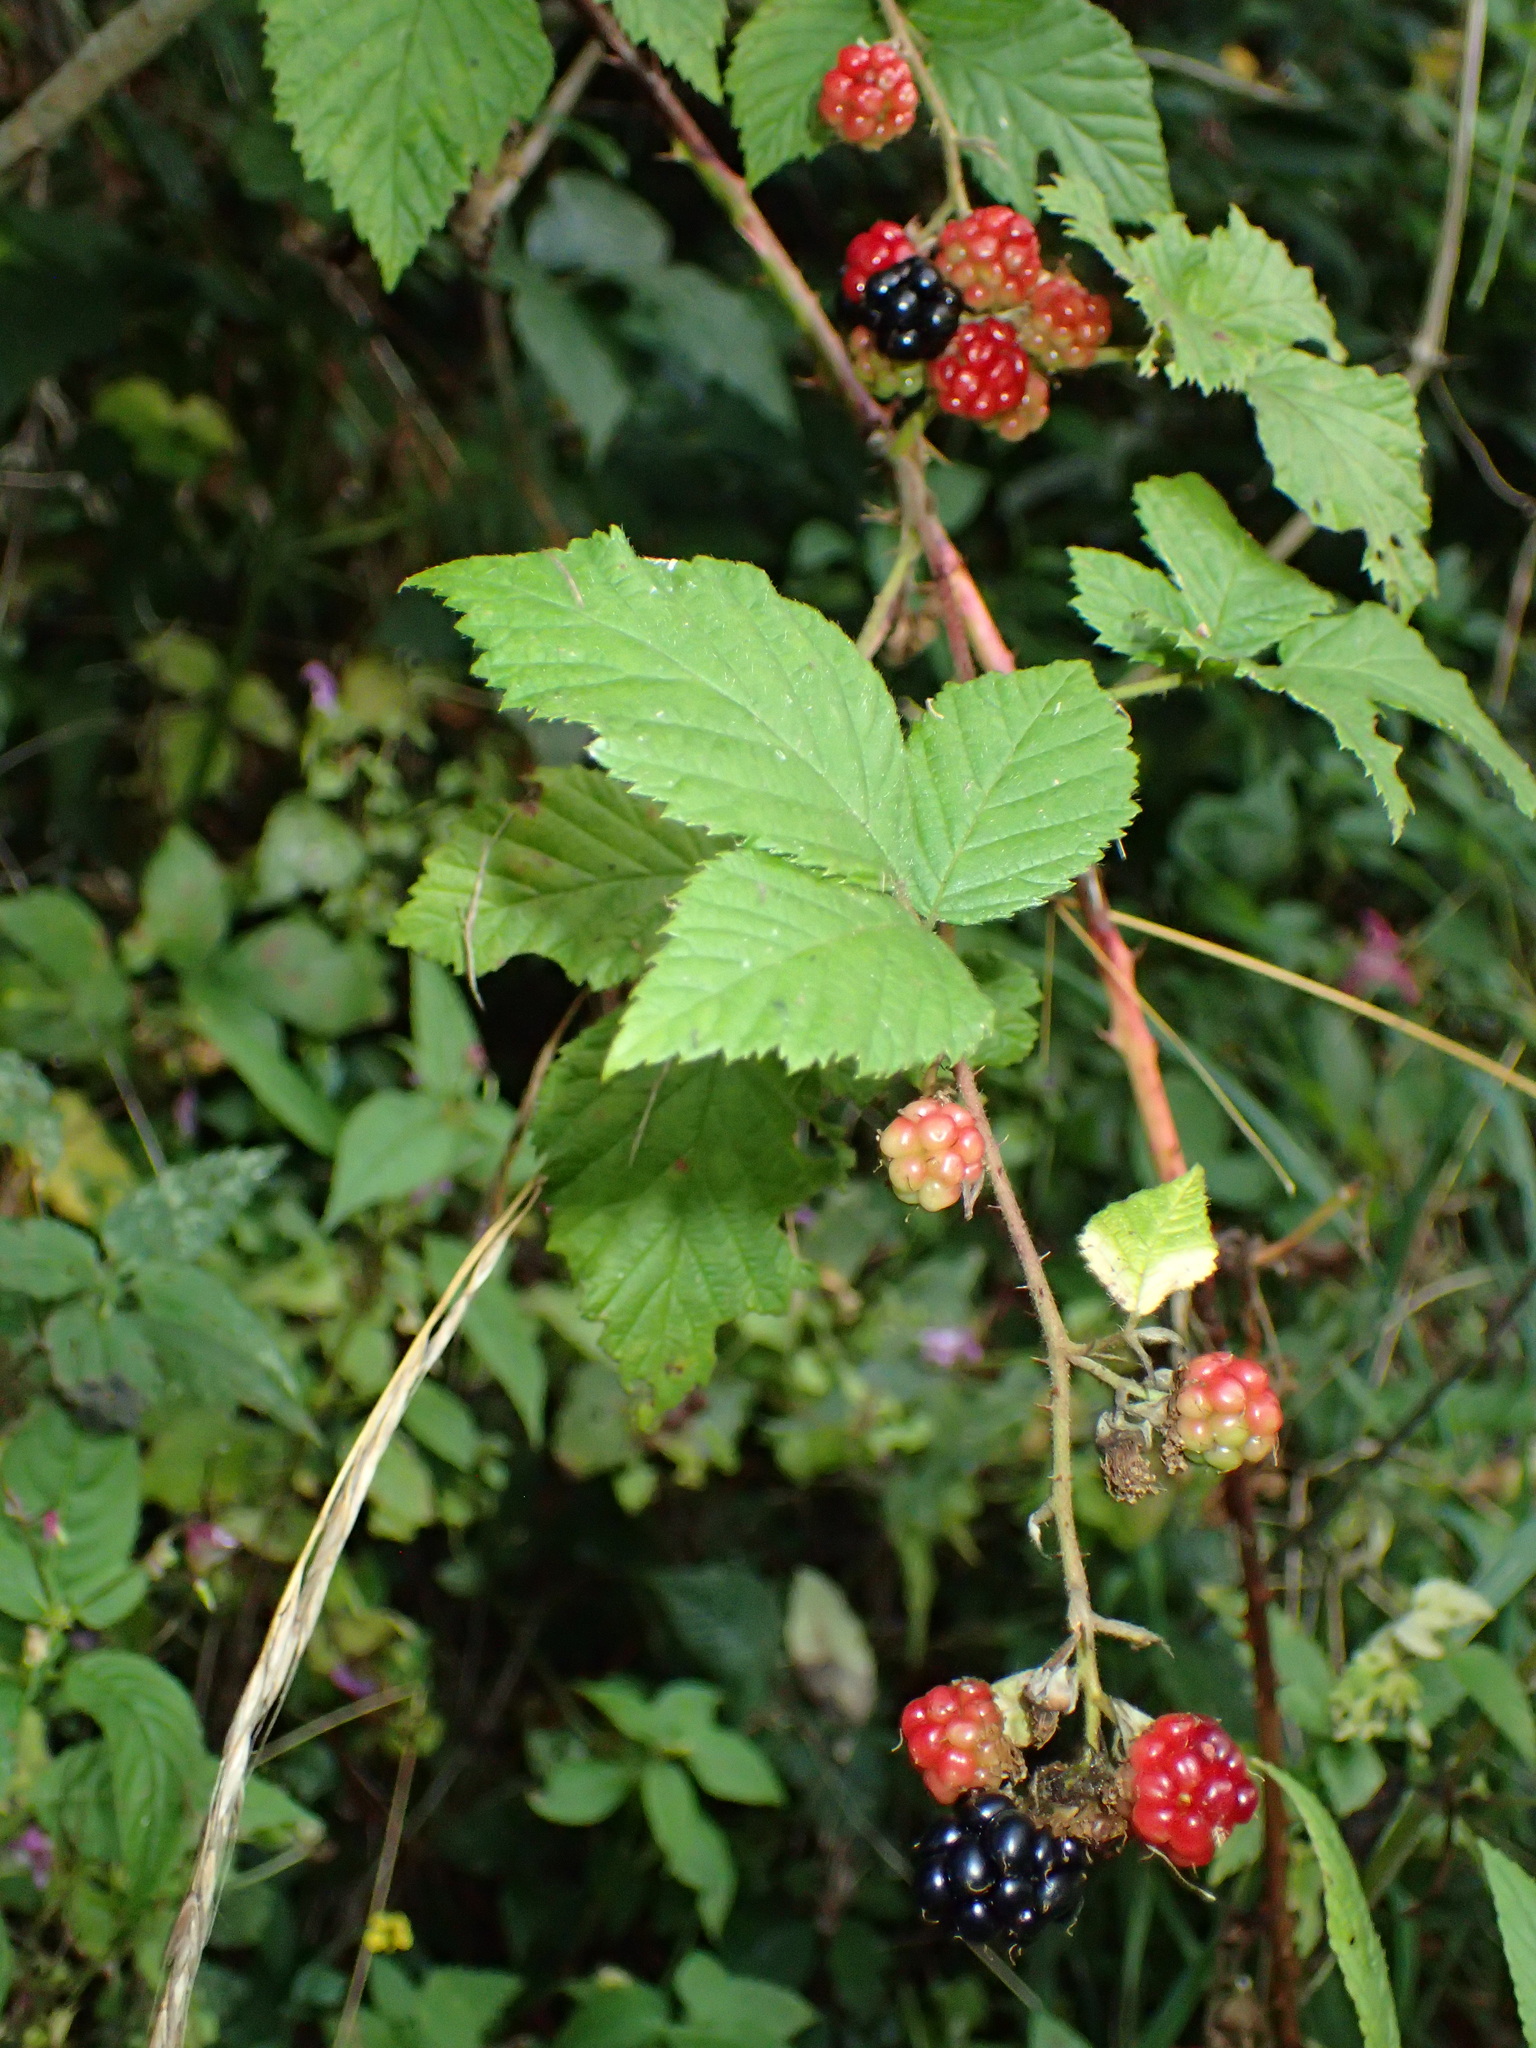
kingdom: Plantae
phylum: Tracheophyta
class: Magnoliopsida
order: Rosales
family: Rosaceae
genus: Rubus
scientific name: Rubus
